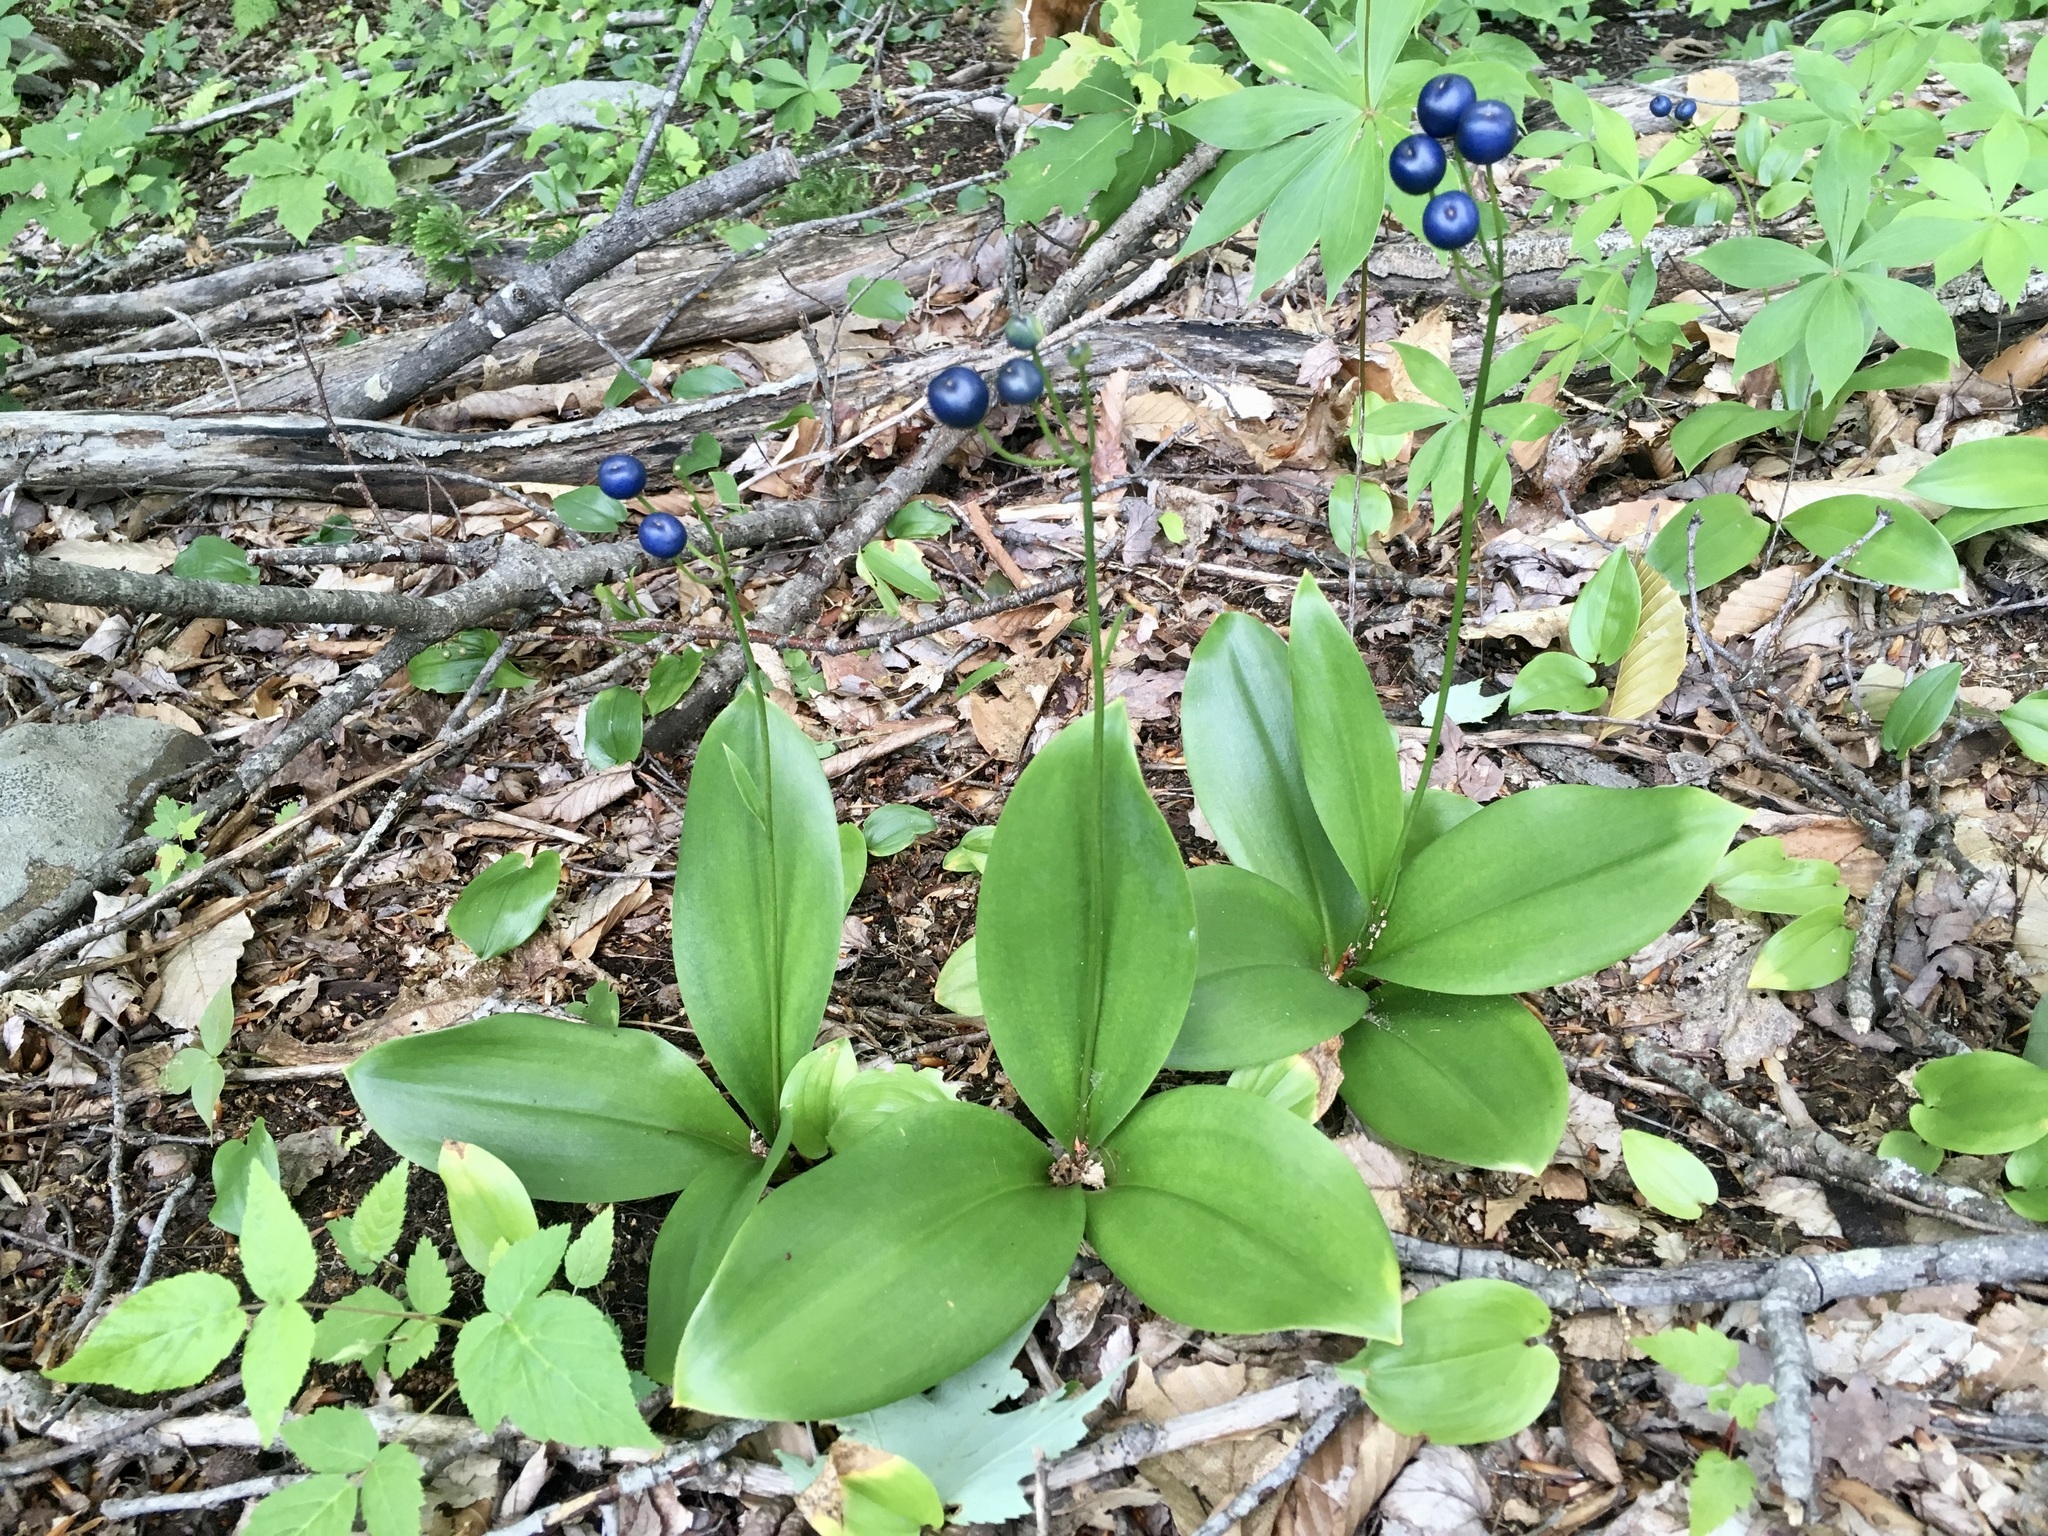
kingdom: Plantae
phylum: Tracheophyta
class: Liliopsida
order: Liliales
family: Liliaceae
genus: Clintonia
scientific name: Clintonia borealis
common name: Yellow clintonia
